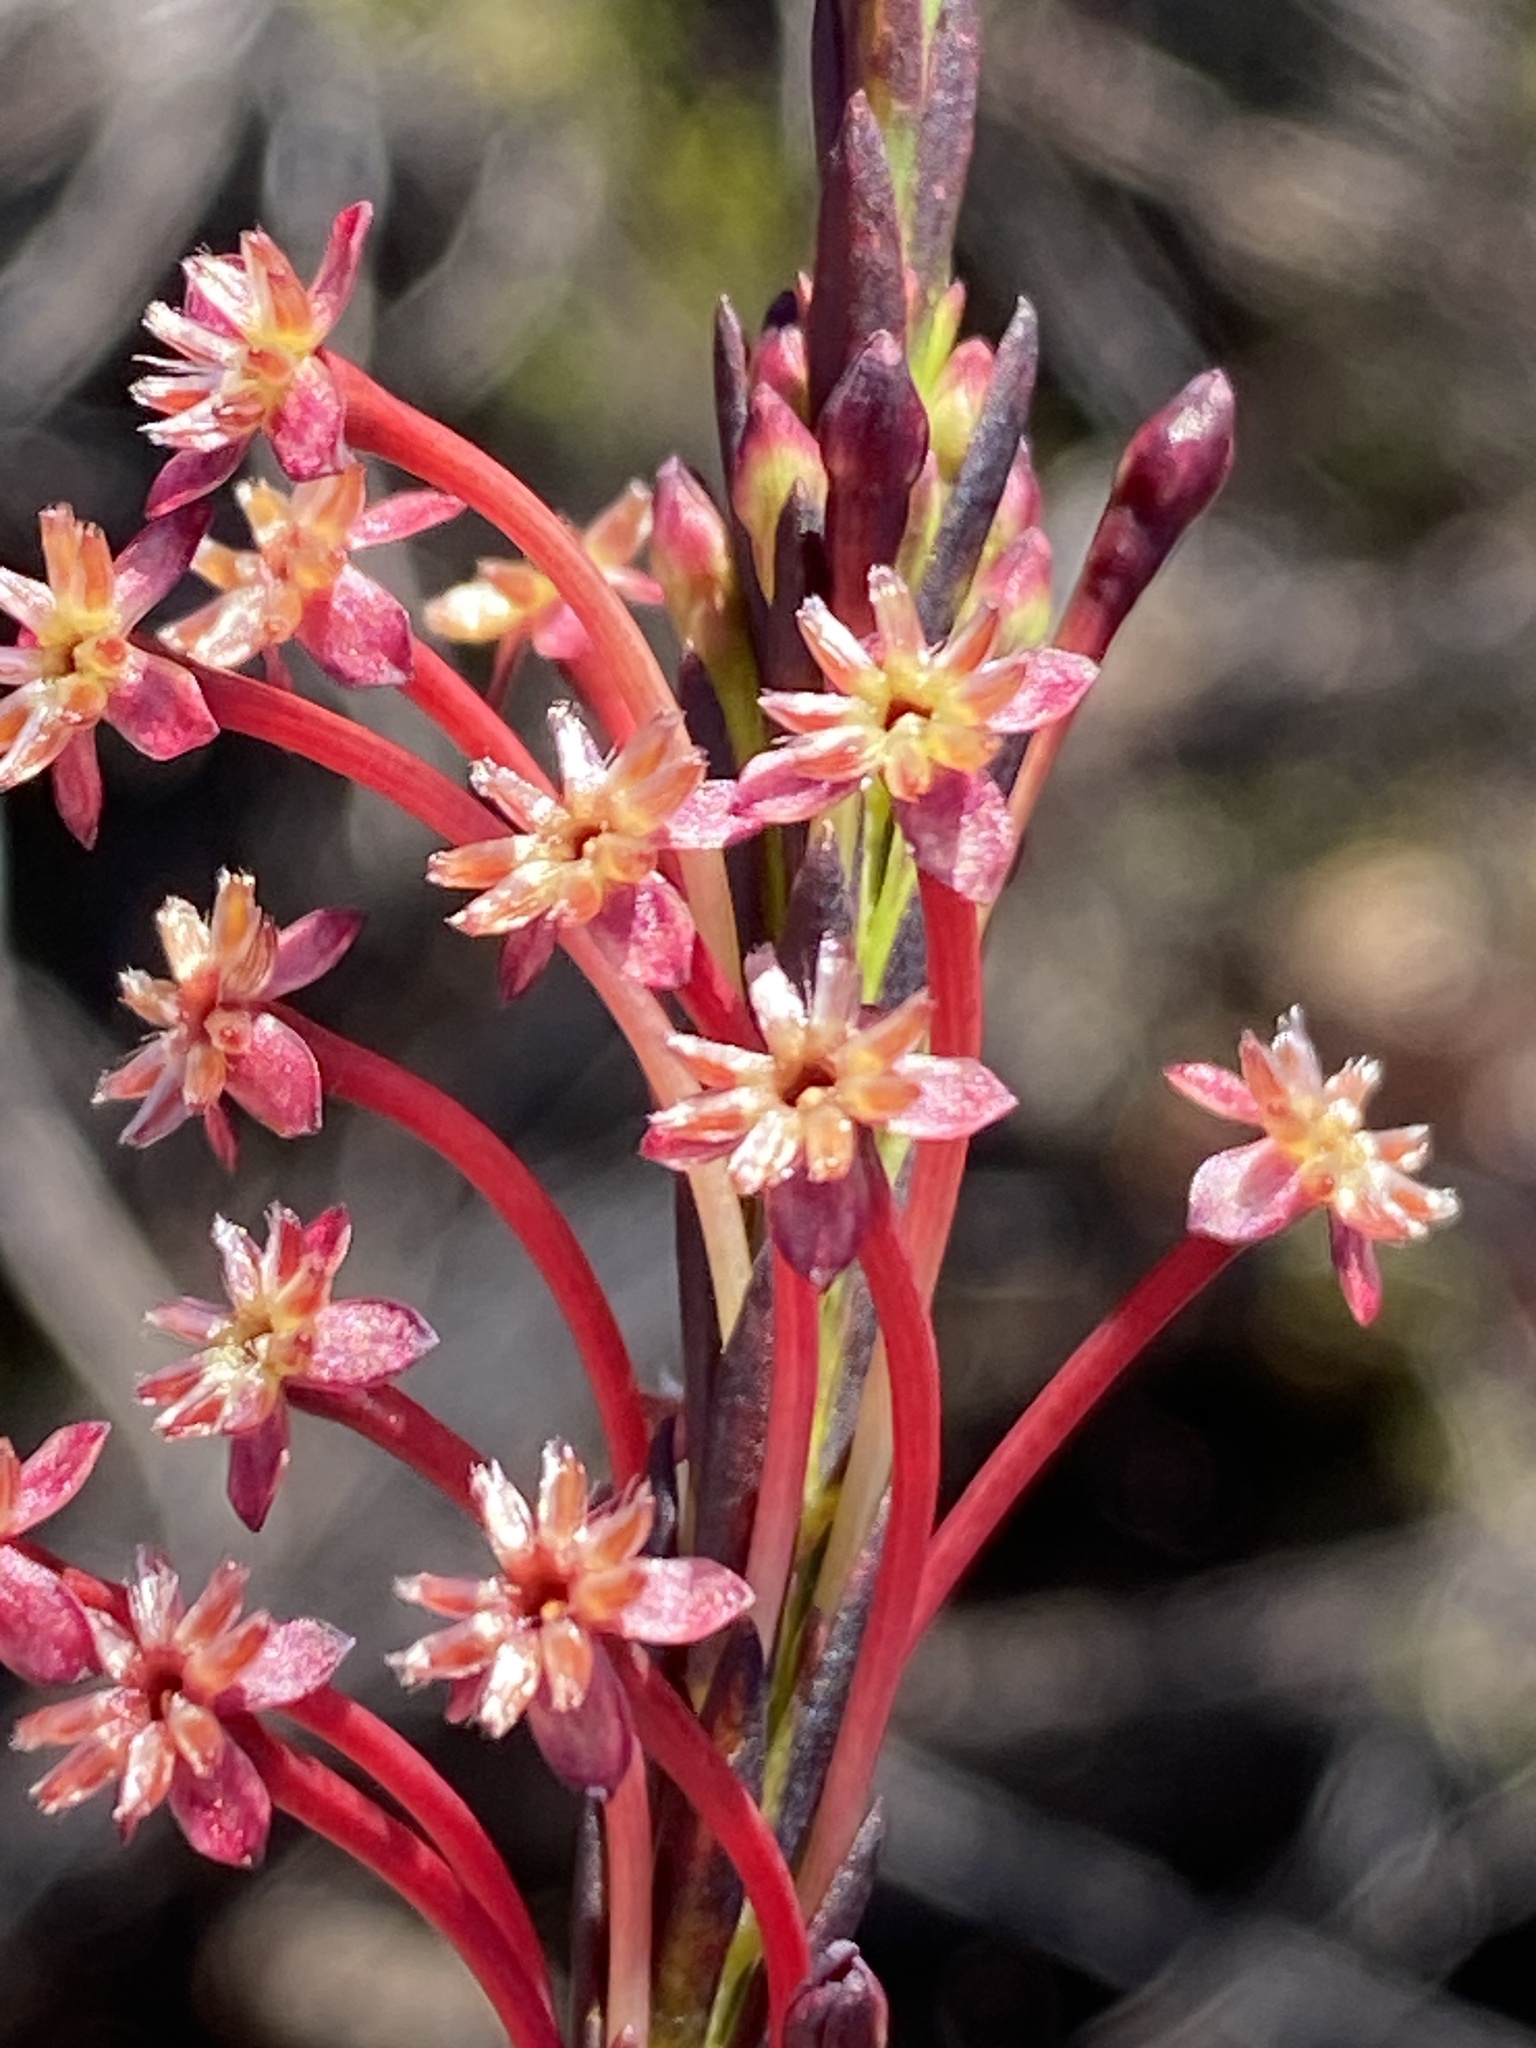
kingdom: Plantae
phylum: Tracheophyta
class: Magnoliopsida
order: Malvales
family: Thymelaeaceae
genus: Struthiola
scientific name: Struthiola macowanii
